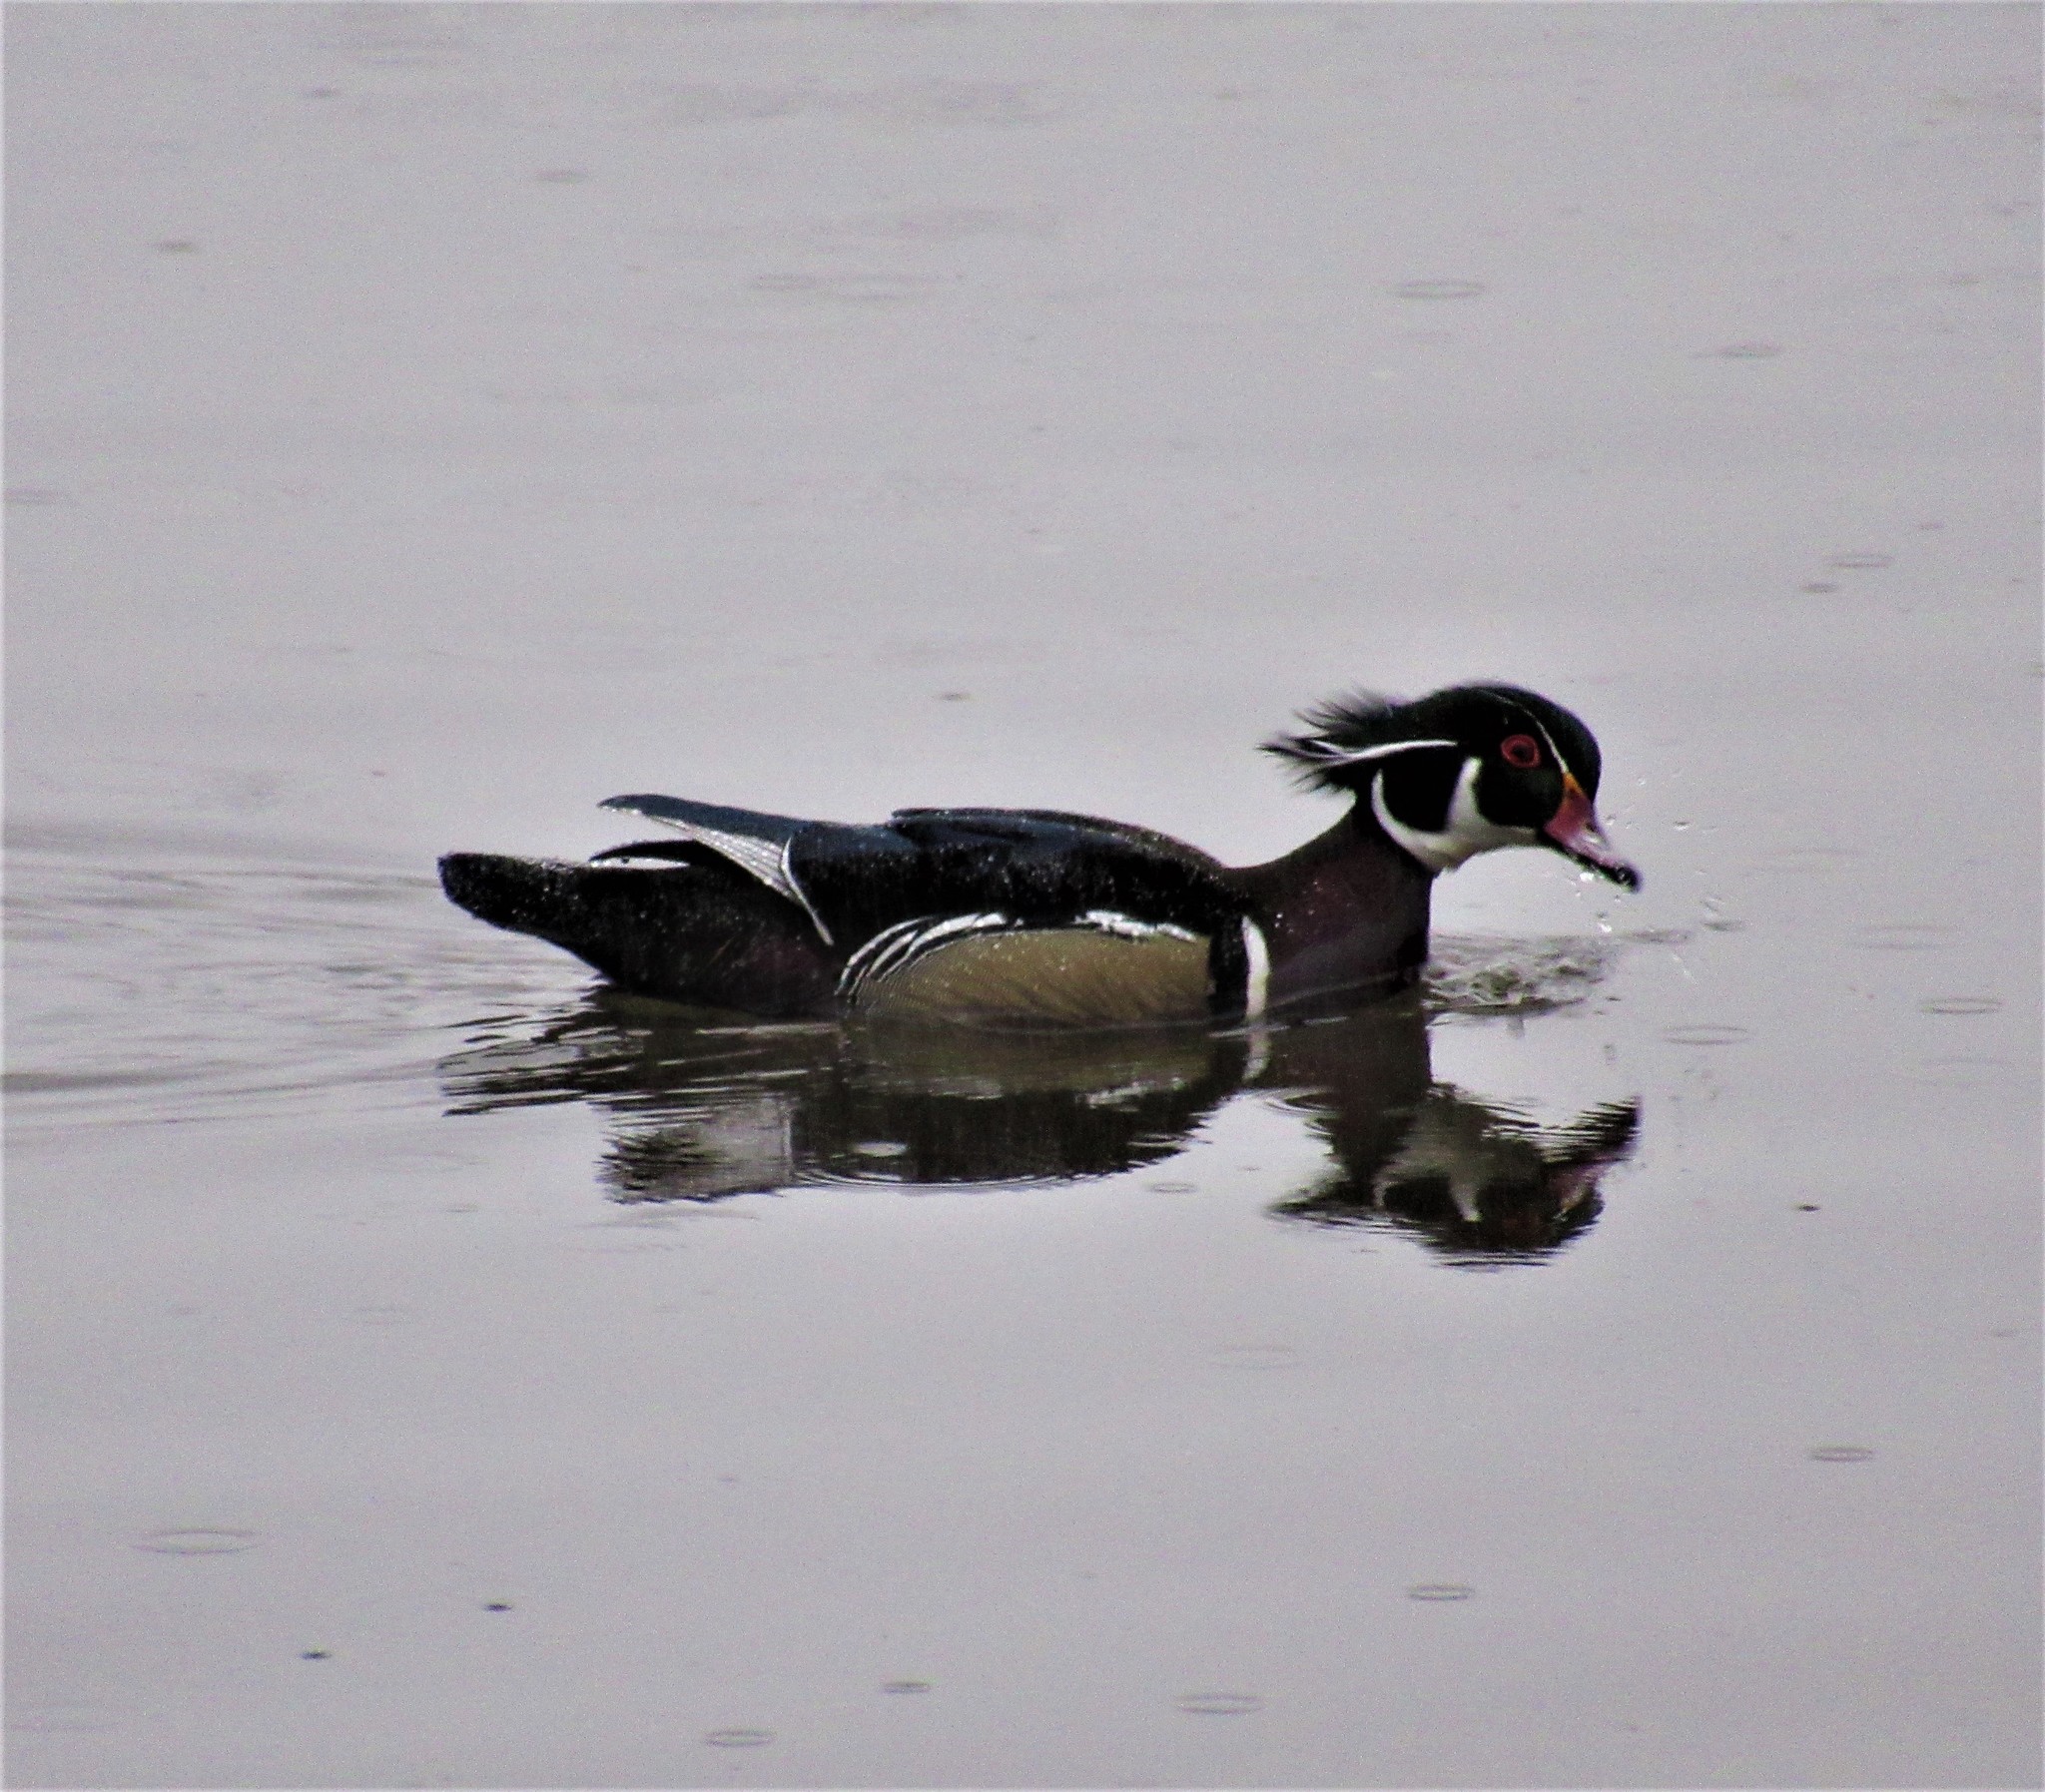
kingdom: Animalia
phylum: Chordata
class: Aves
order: Anseriformes
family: Anatidae
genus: Aix
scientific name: Aix sponsa
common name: Wood duck
